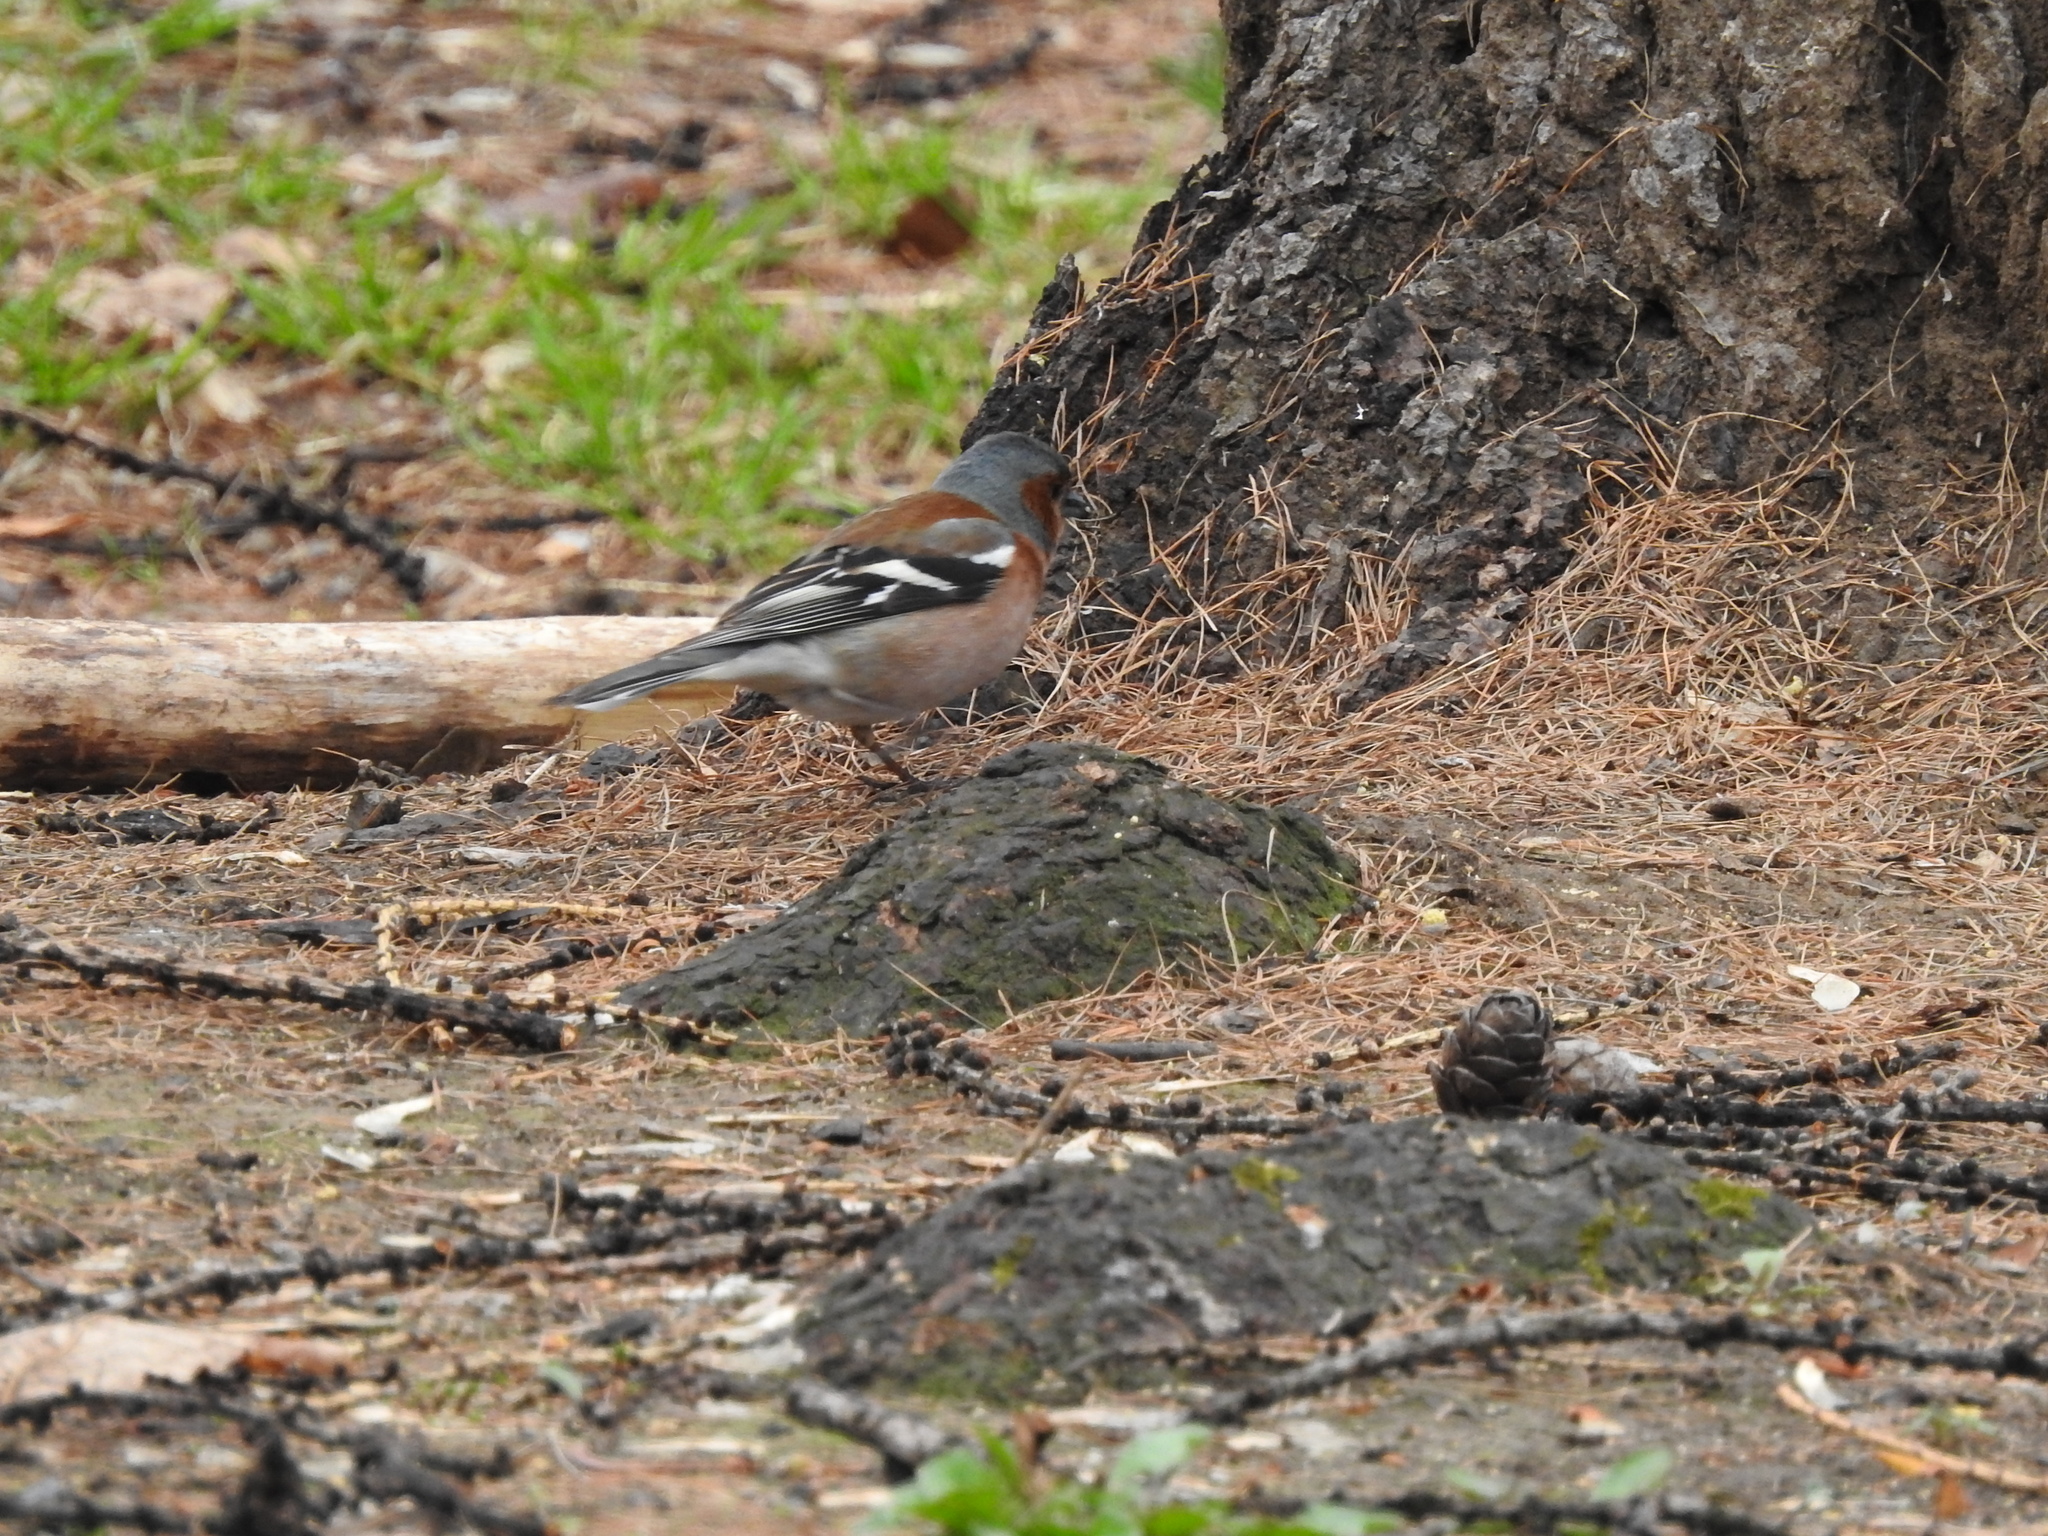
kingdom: Animalia
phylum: Chordata
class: Aves
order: Passeriformes
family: Fringillidae
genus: Fringilla
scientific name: Fringilla coelebs
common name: Common chaffinch
